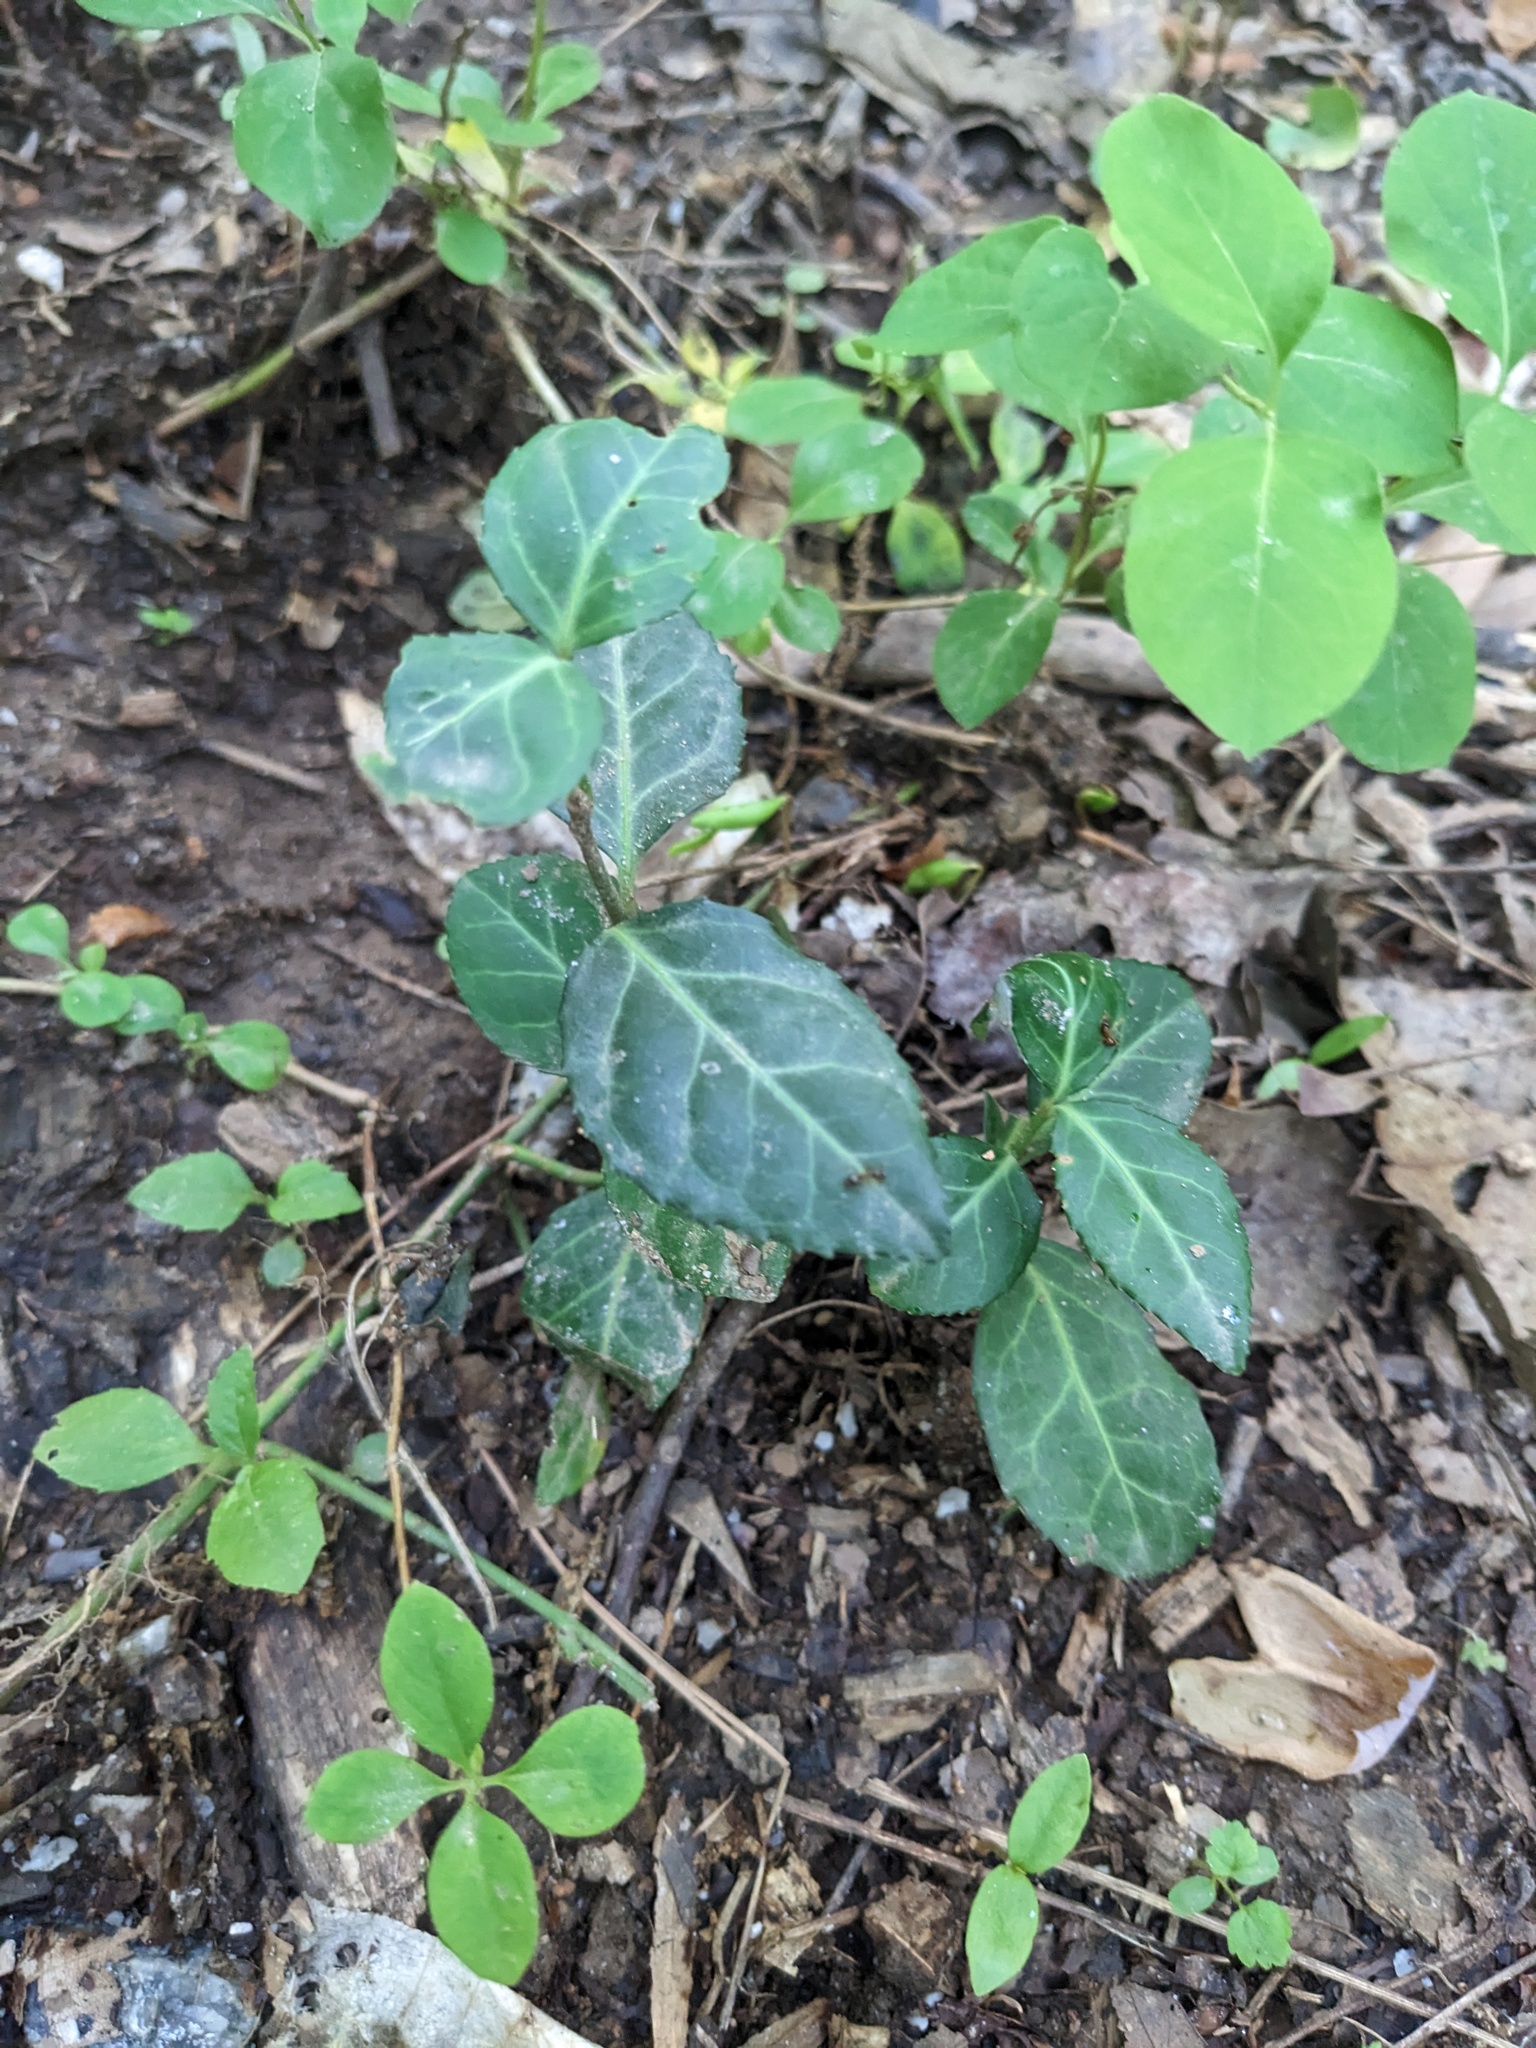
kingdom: Plantae
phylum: Tracheophyta
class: Magnoliopsida
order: Celastrales
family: Celastraceae
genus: Euonymus
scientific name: Euonymus fortunei
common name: Climbing euonymus
